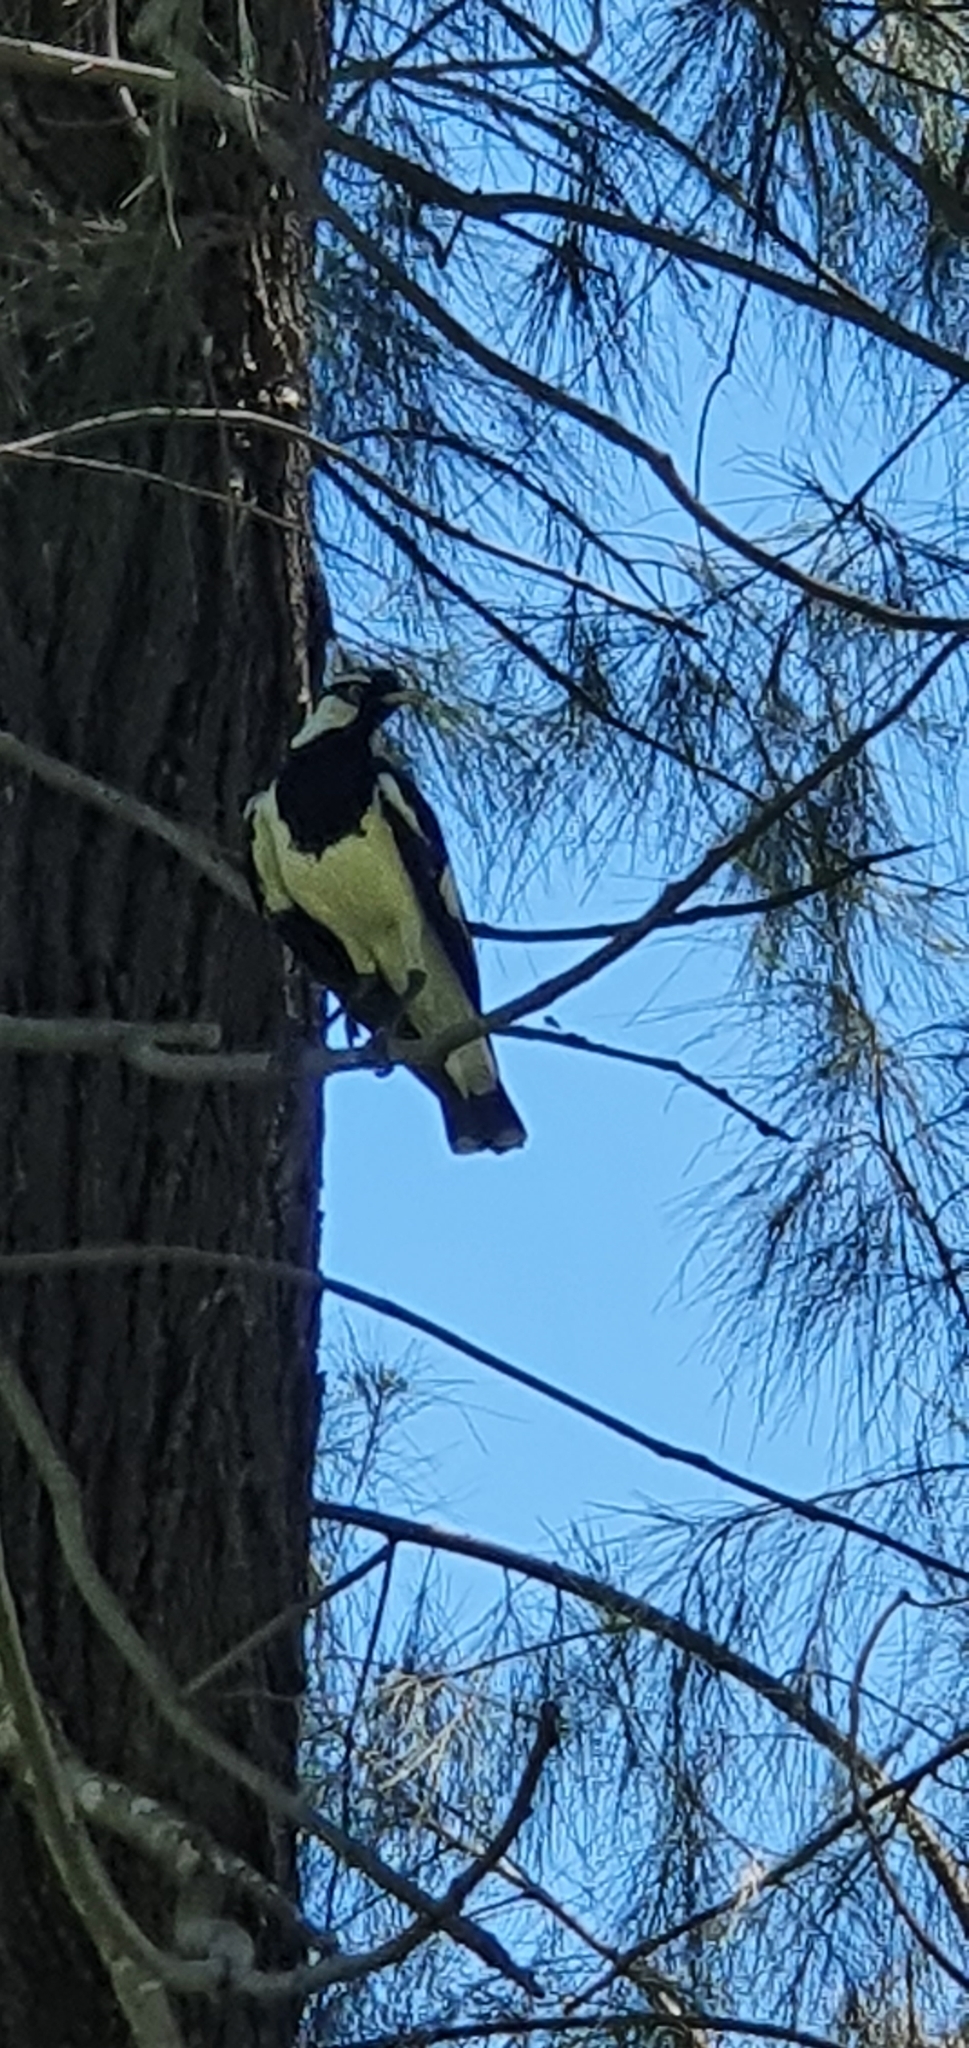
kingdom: Animalia
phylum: Chordata
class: Aves
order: Passeriformes
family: Monarchidae
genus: Grallina
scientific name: Grallina cyanoleuca
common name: Magpie-lark
